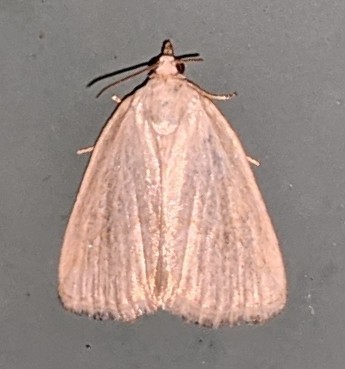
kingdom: Animalia
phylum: Arthropoda
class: Insecta
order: Lepidoptera
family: Noctuidae
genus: Protodeltote
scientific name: Protodeltote albidula
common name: Pale glyph
